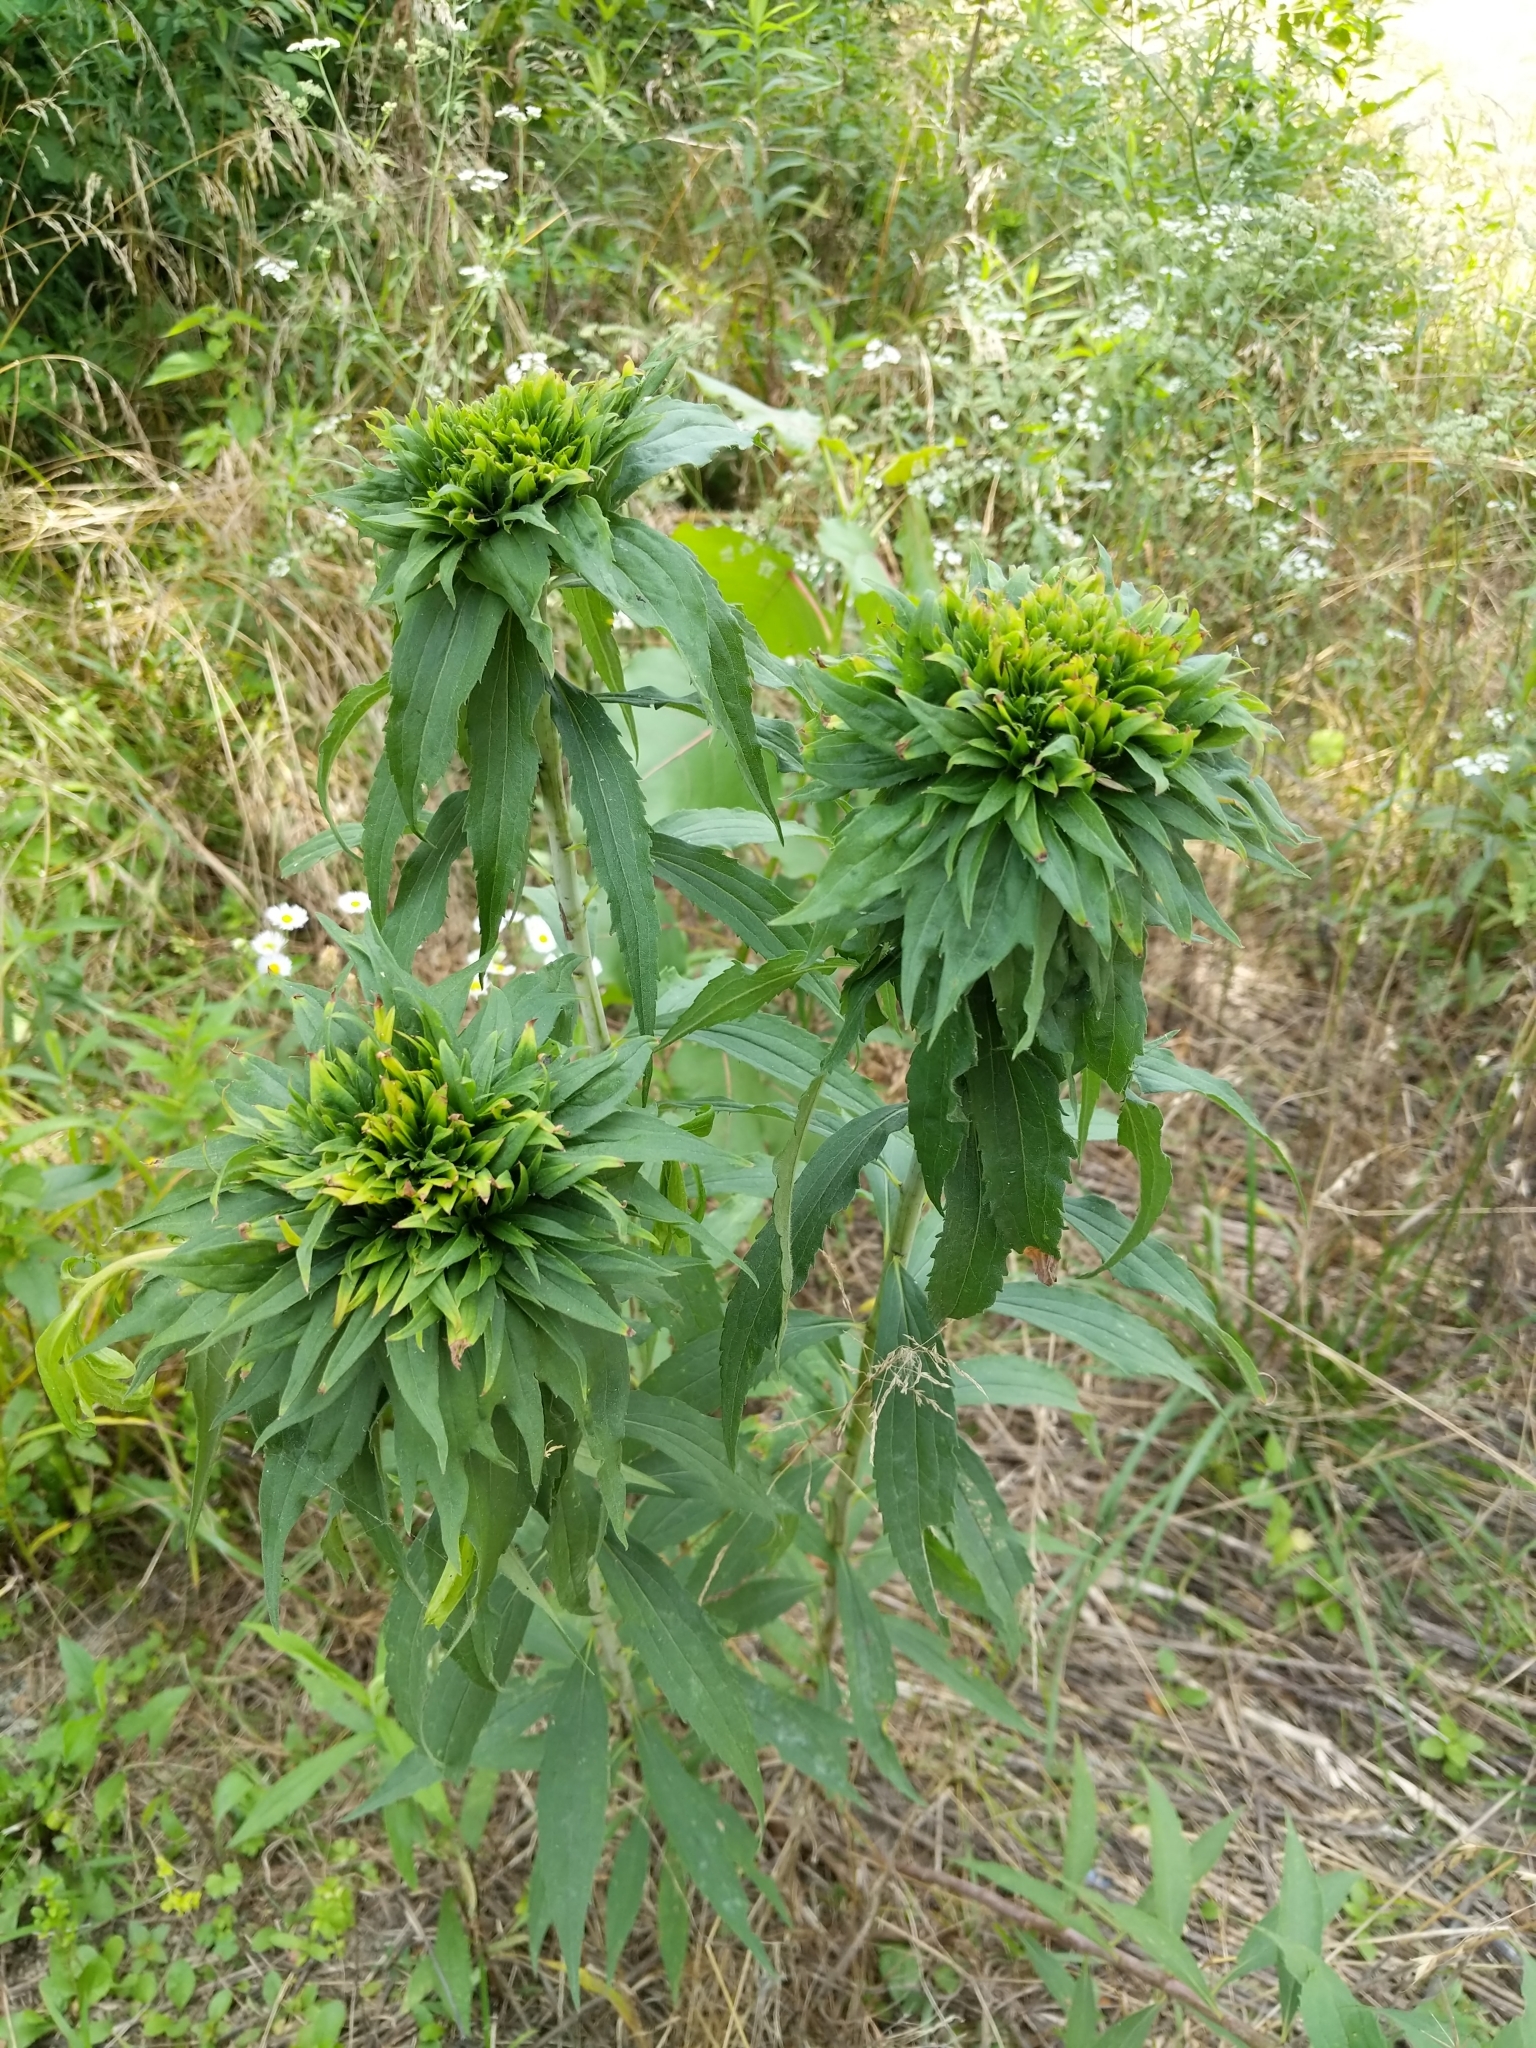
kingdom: Animalia
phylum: Arthropoda
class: Insecta
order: Diptera
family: Cecidomyiidae
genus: Rhopalomyia
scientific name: Rhopalomyia capitata
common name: Giant goldenrod bunch gall midge
